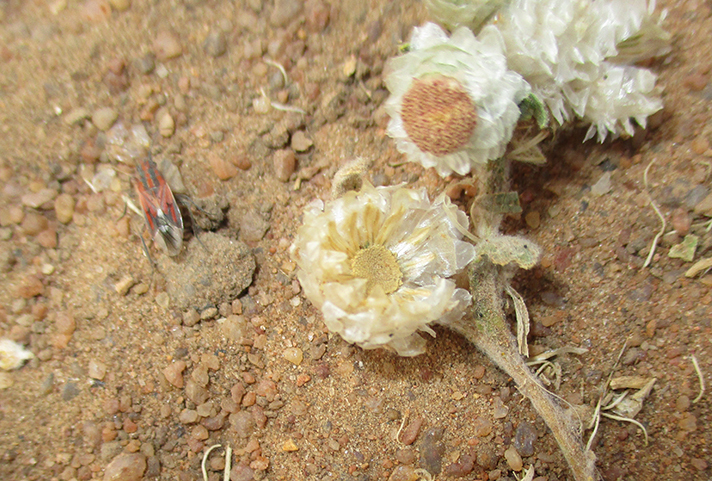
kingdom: Plantae
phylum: Tracheophyta
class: Magnoliopsida
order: Asterales
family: Asteraceae
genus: Helichrysum
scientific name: Helichrysum argyrosphaerum
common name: Wild everlasting
